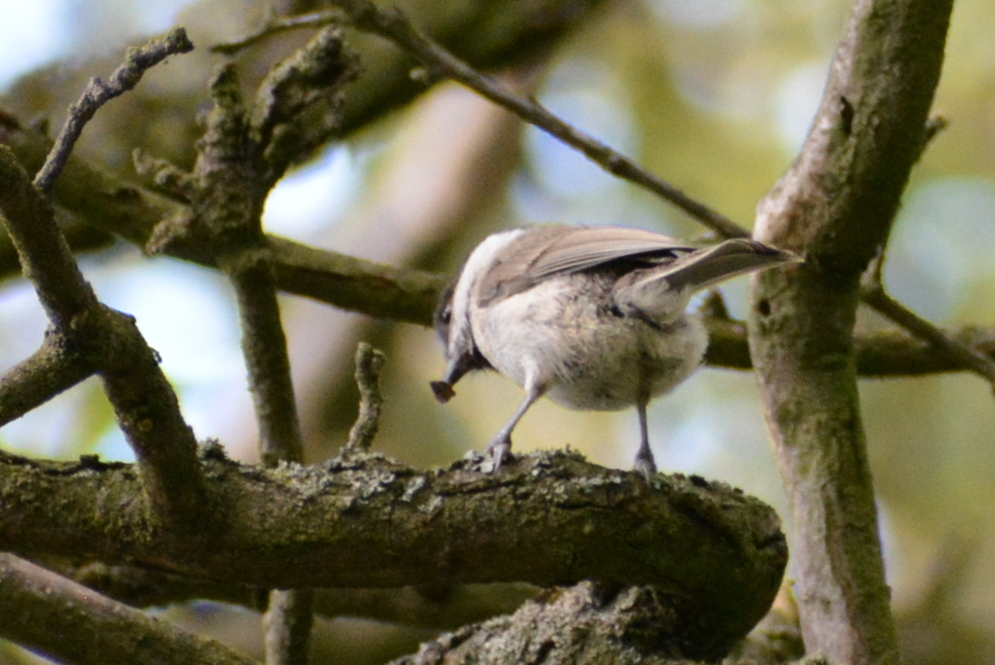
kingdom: Animalia
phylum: Chordata
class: Aves
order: Passeriformes
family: Paridae
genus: Poecile
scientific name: Poecile palustris
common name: Marsh tit
